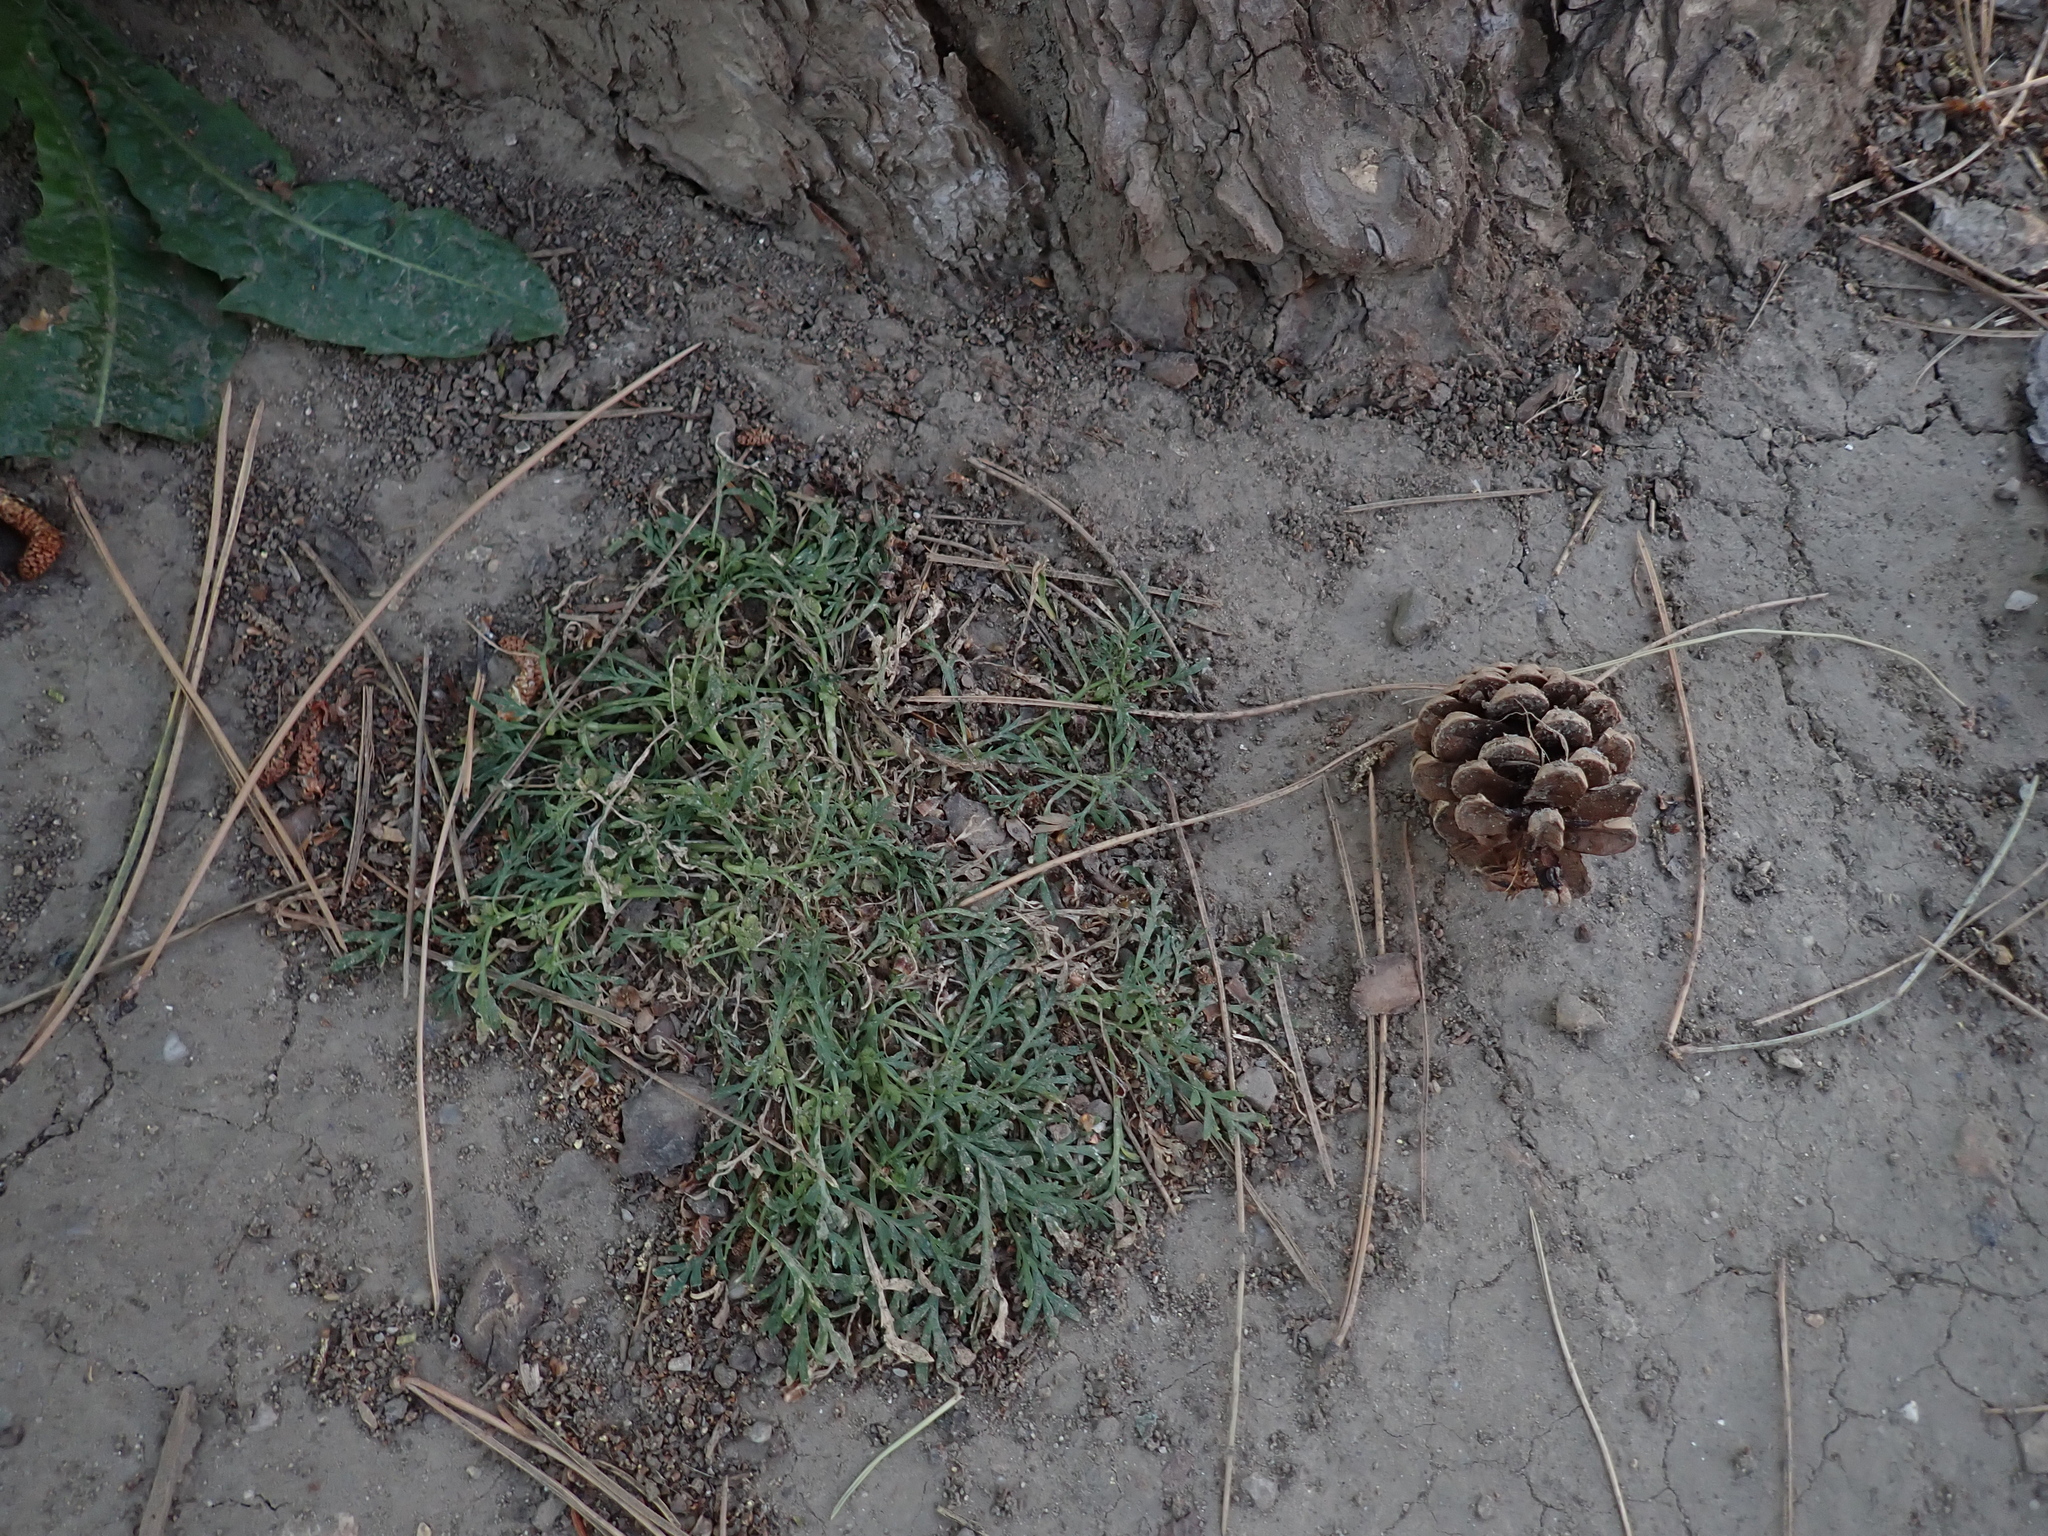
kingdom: Plantae
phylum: Tracheophyta
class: Magnoliopsida
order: Brassicales
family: Brassicaceae
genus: Lepidium
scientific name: Lepidium coronopus
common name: Greater swinecress
